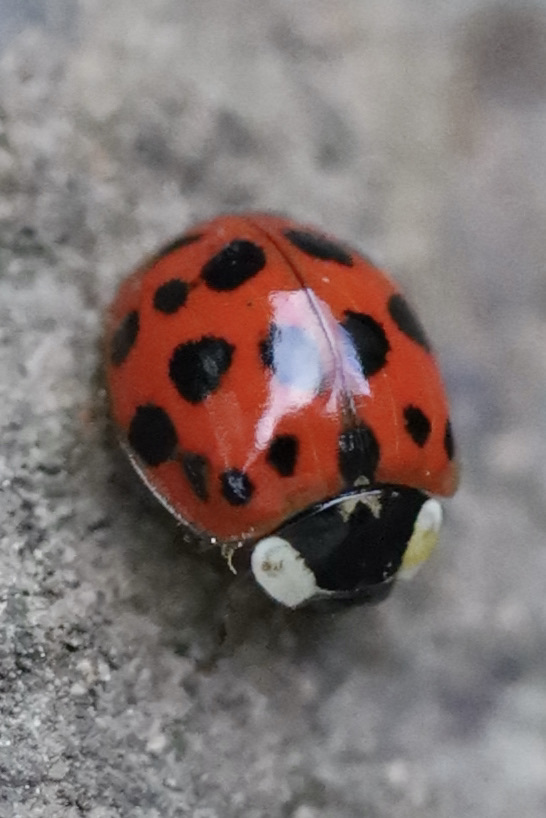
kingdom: Animalia
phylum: Arthropoda
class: Insecta
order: Coleoptera
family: Coccinellidae
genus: Harmonia
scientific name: Harmonia axyridis
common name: Harlequin ladybird
